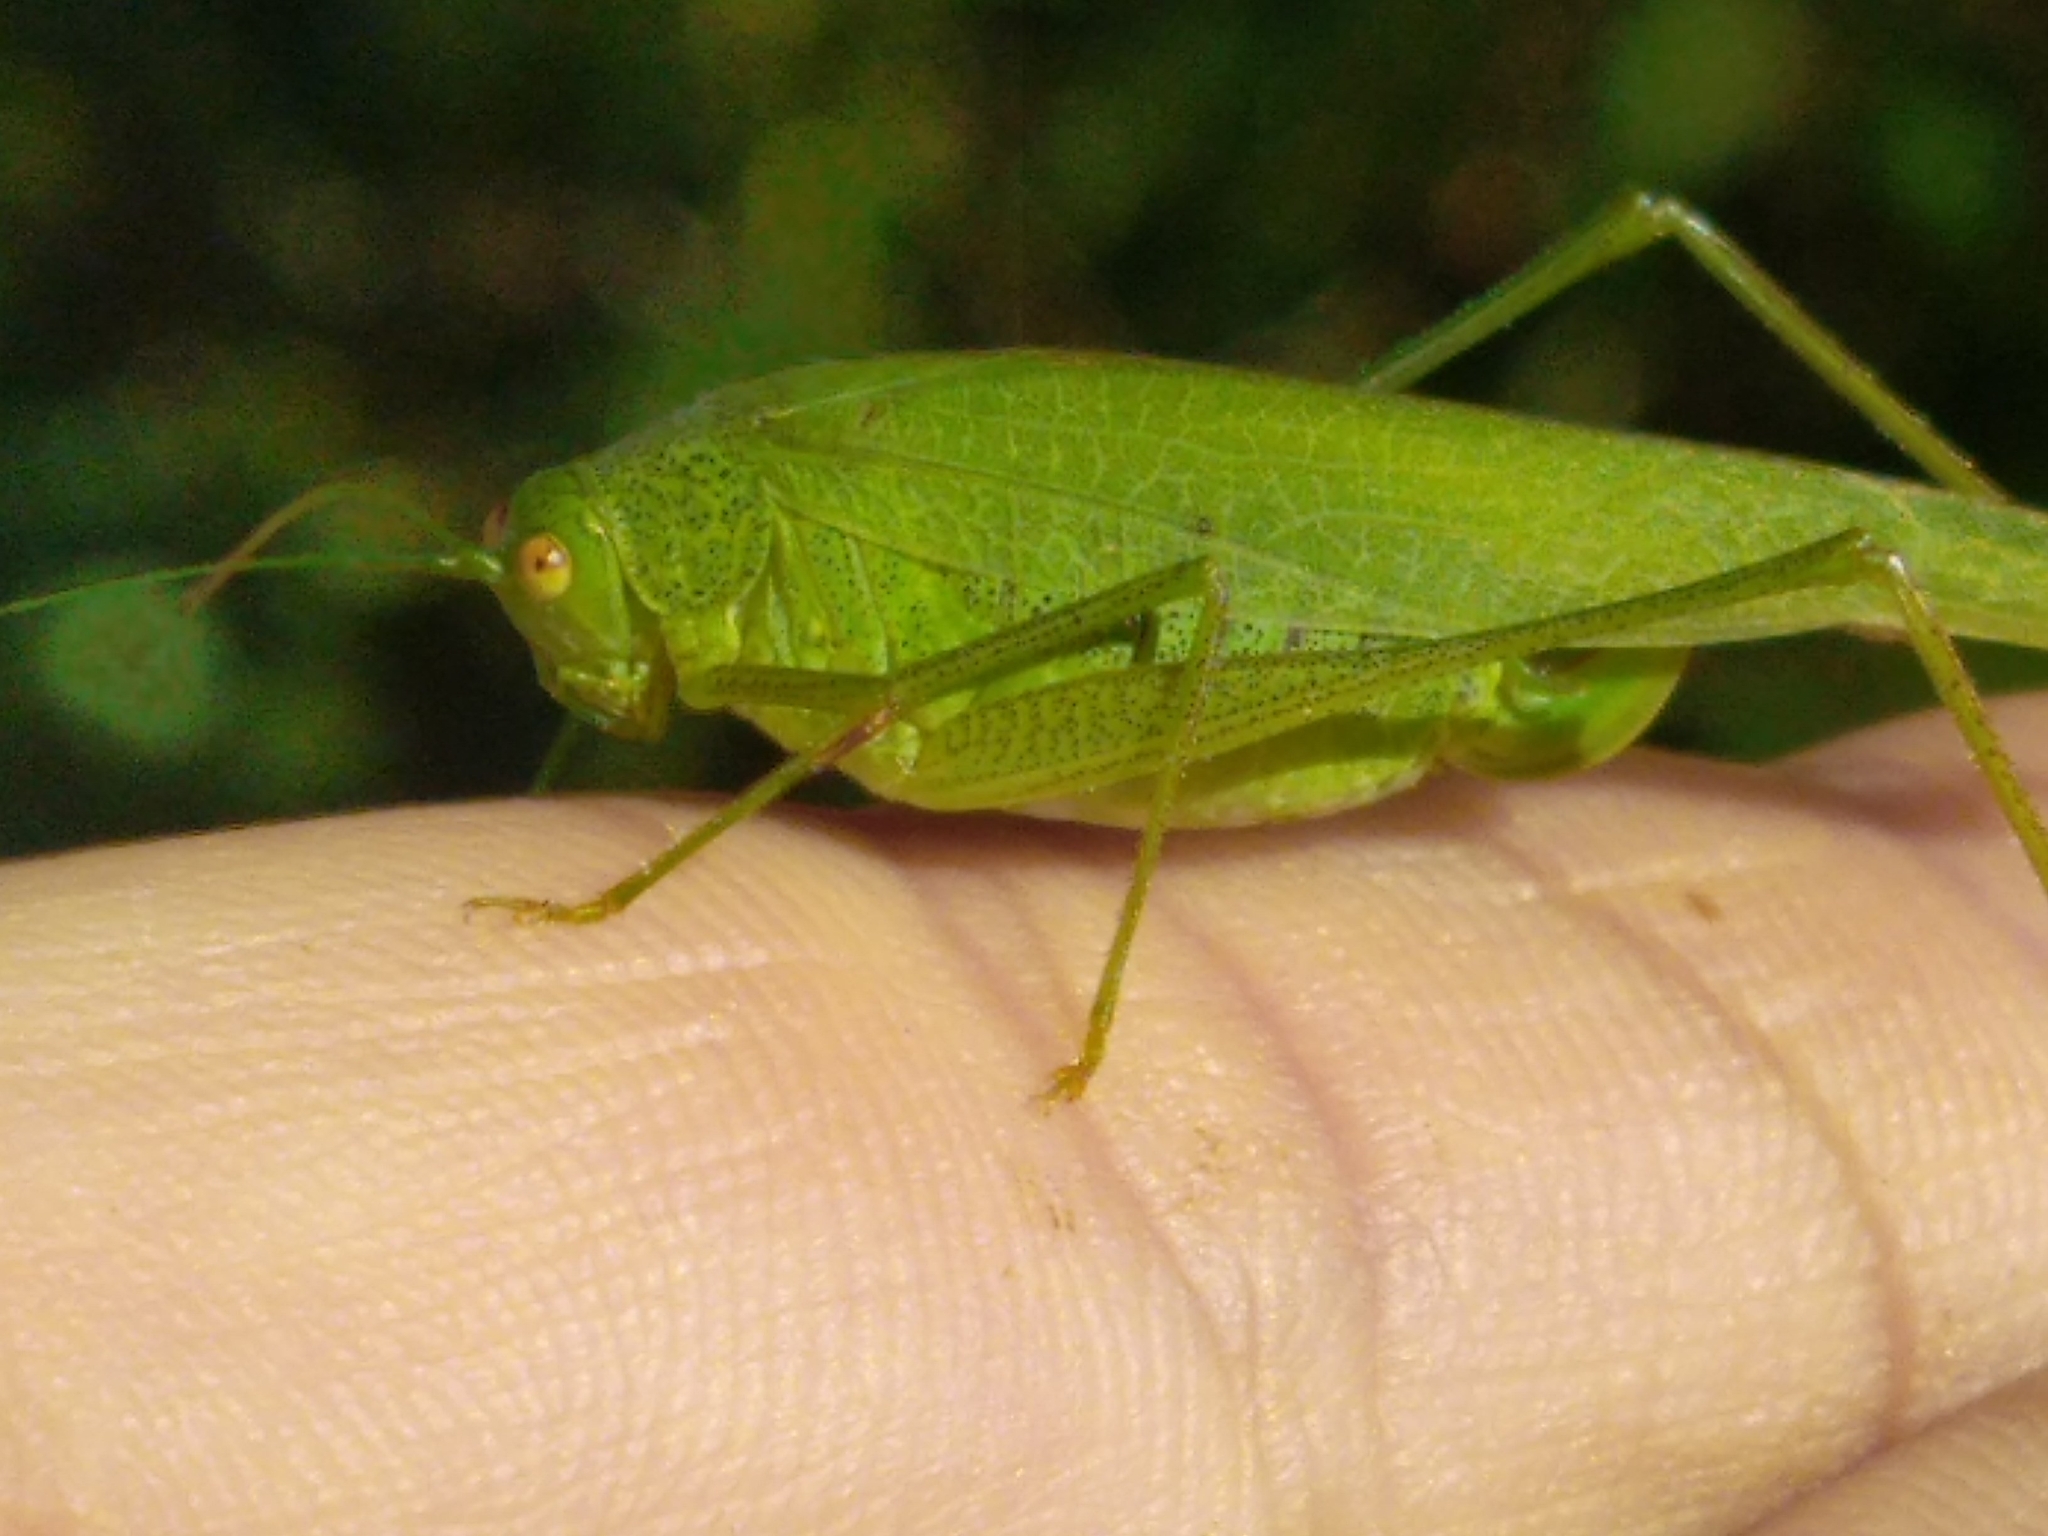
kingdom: Animalia
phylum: Arthropoda
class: Insecta
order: Orthoptera
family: Tettigoniidae
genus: Phaneroptera
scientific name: Phaneroptera nana
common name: Southern sickle bush-cricket
